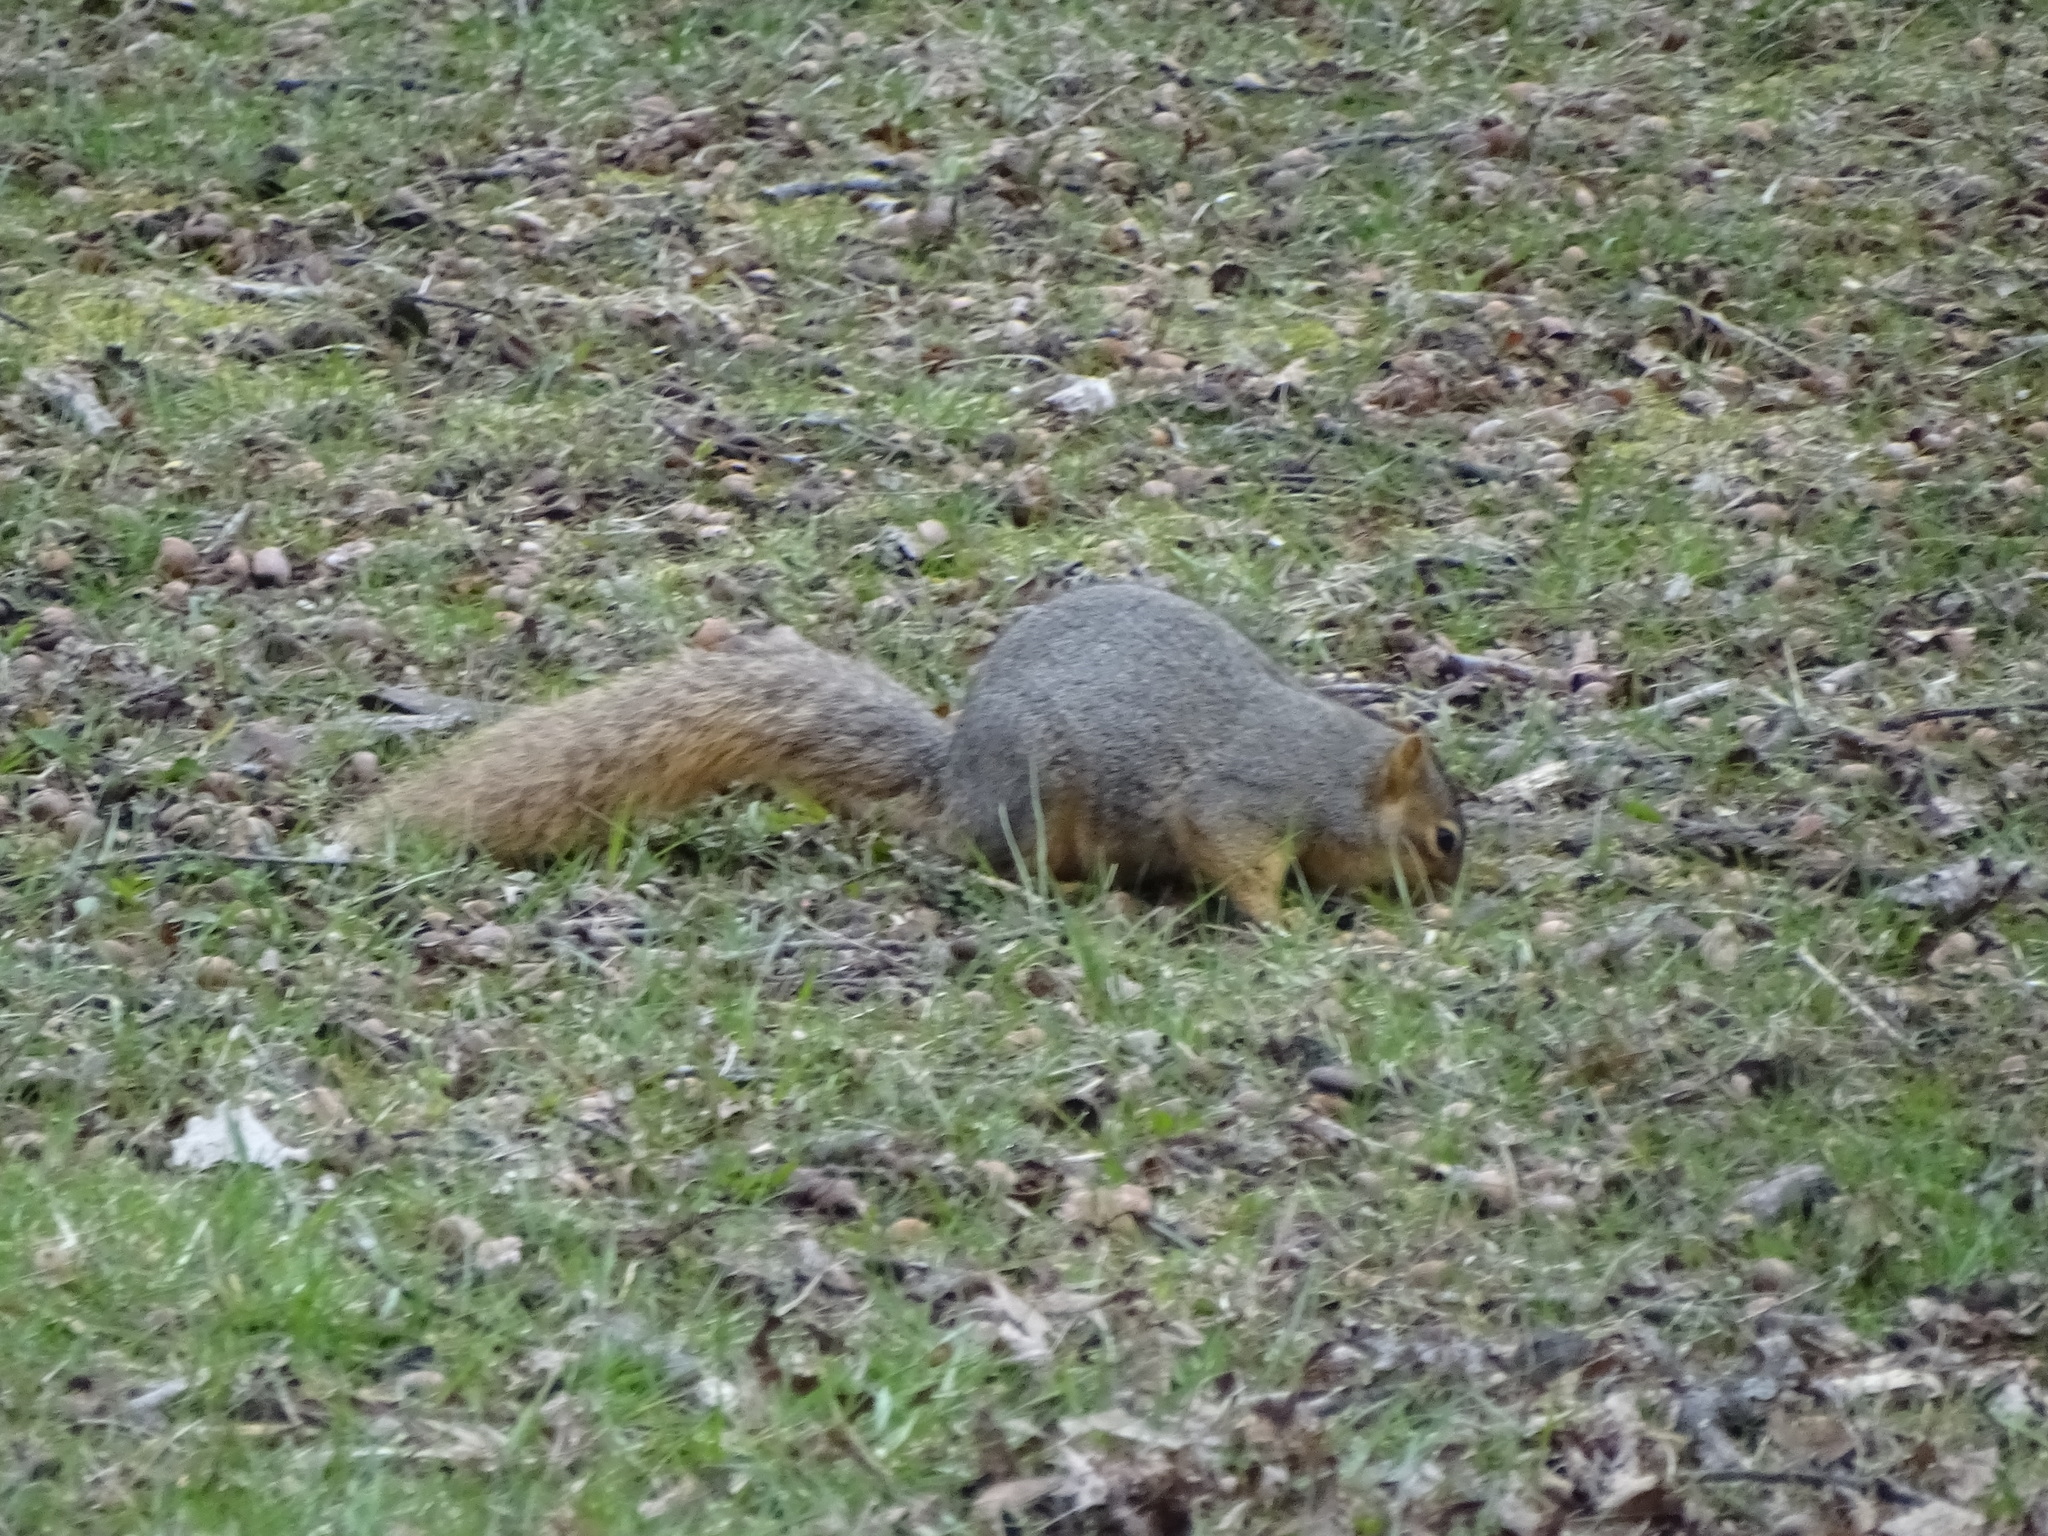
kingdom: Animalia
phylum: Chordata
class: Mammalia
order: Rodentia
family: Sciuridae
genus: Sciurus
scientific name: Sciurus niger
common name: Fox squirrel
